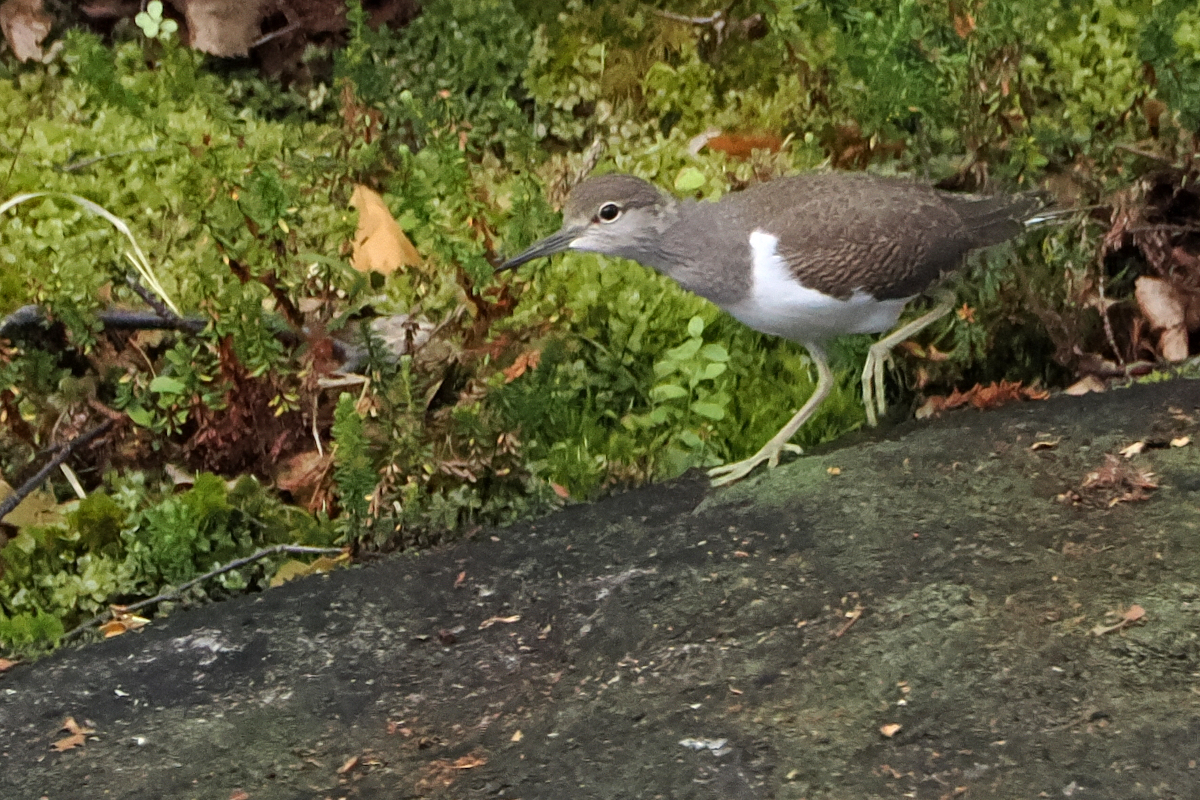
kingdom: Animalia
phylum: Chordata
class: Aves
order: Charadriiformes
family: Scolopacidae
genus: Actitis
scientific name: Actitis hypoleucos
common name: Common sandpiper
